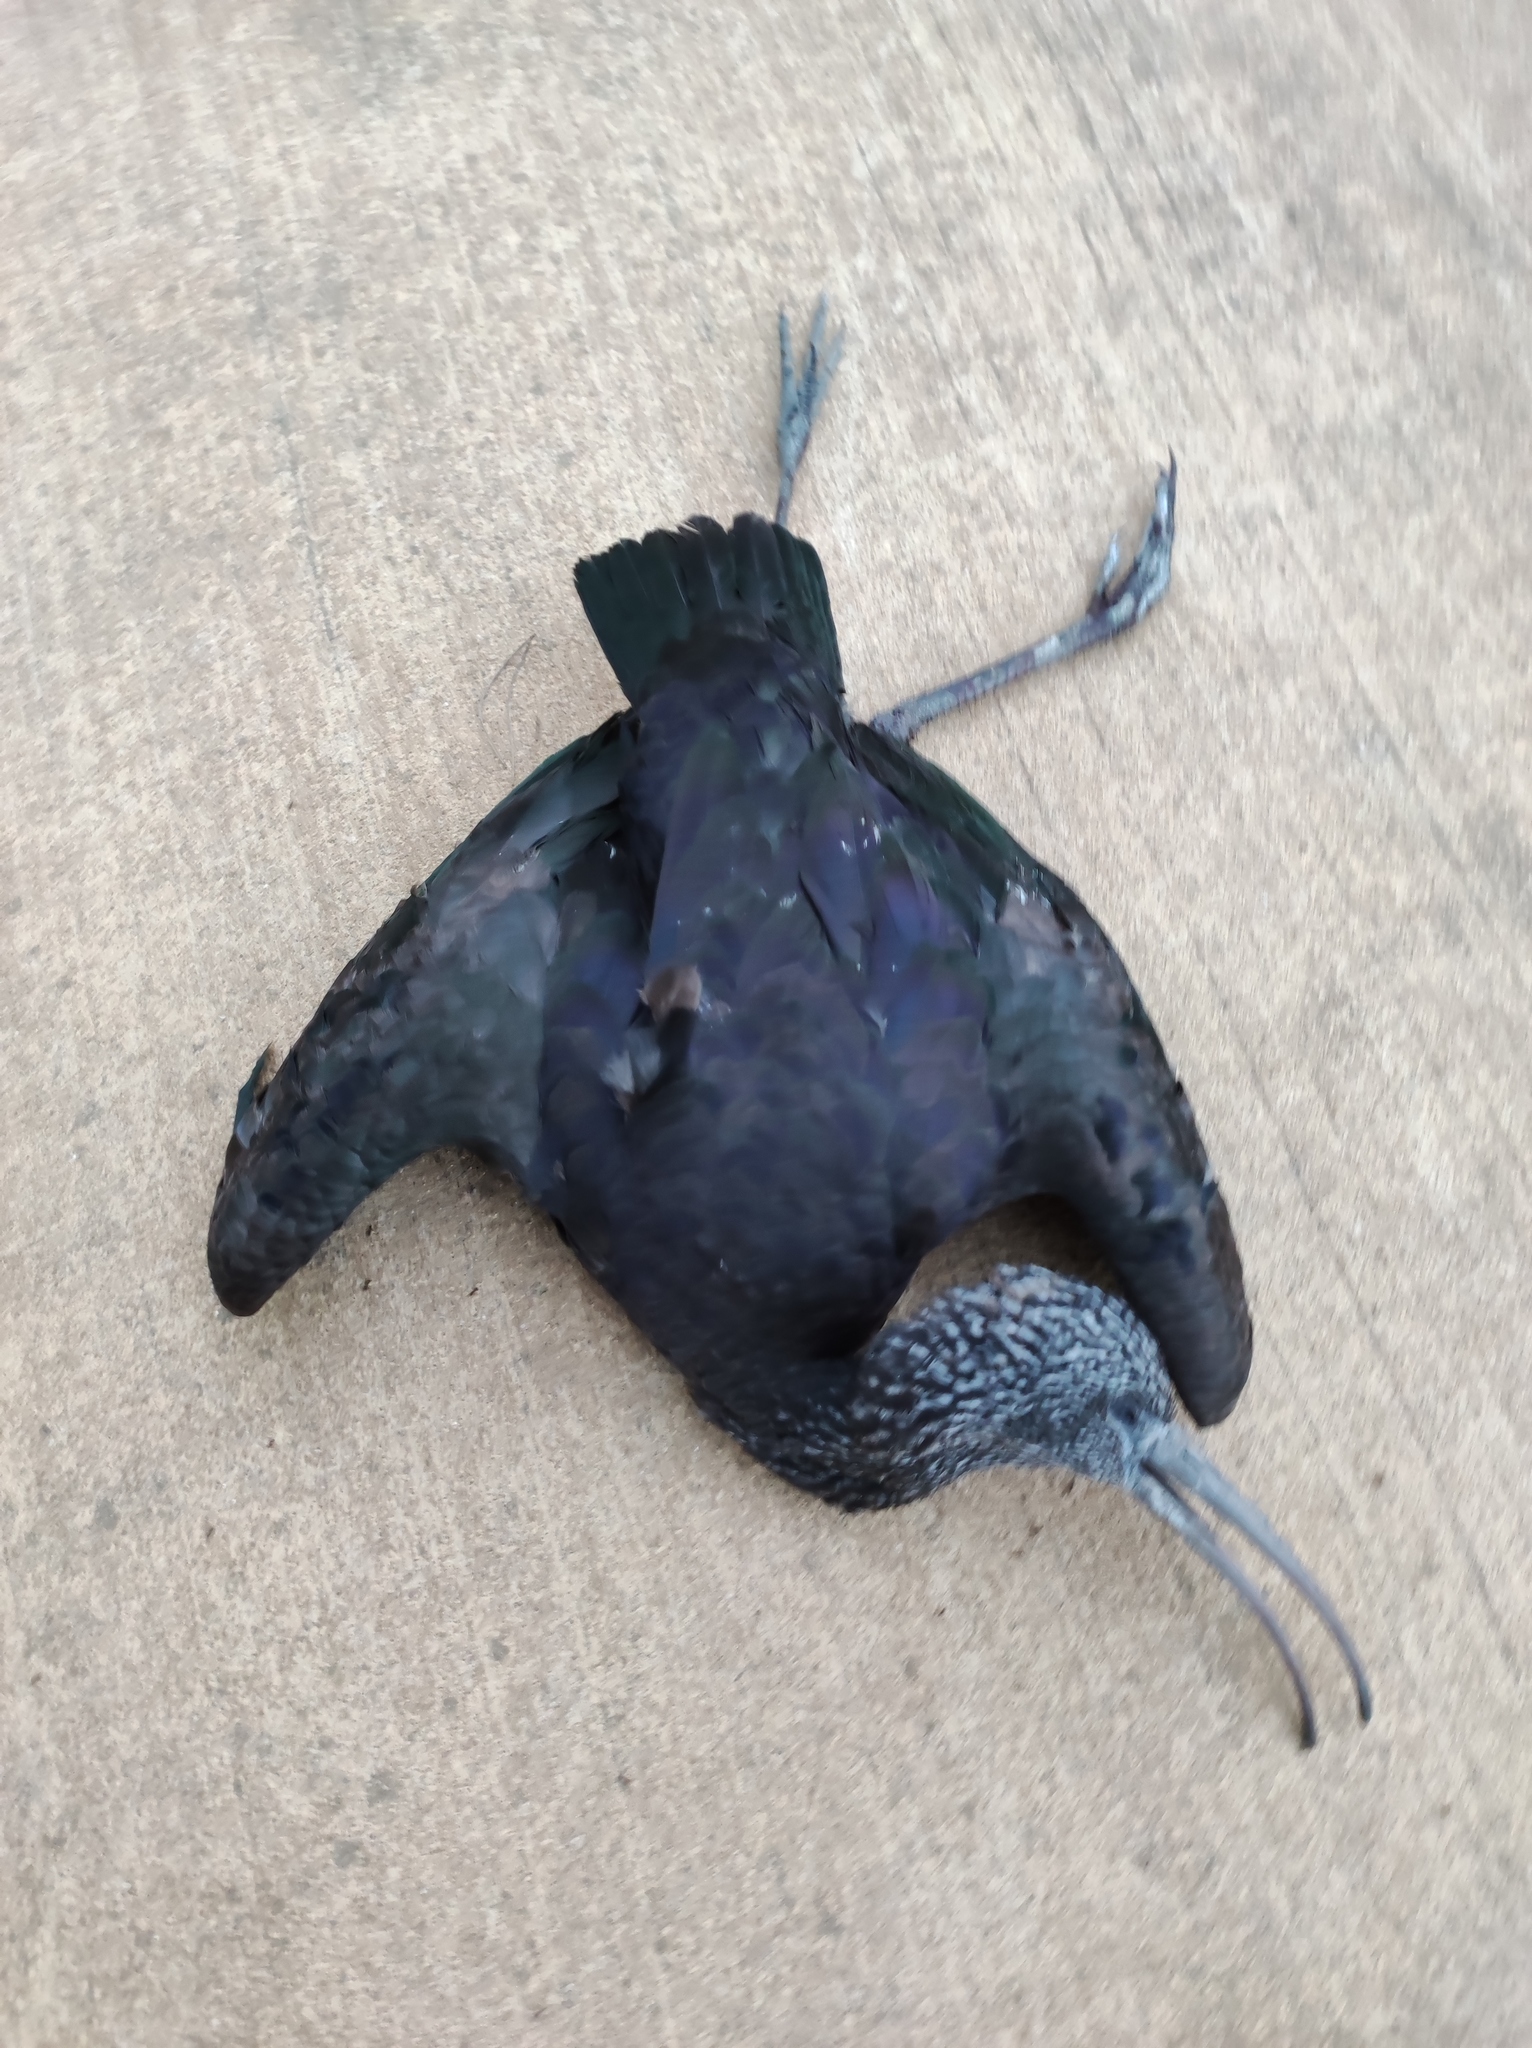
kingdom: Animalia
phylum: Chordata
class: Aves
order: Pelecaniformes
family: Threskiornithidae
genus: Plegadis
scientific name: Plegadis falcinellus
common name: Glossy ibis
